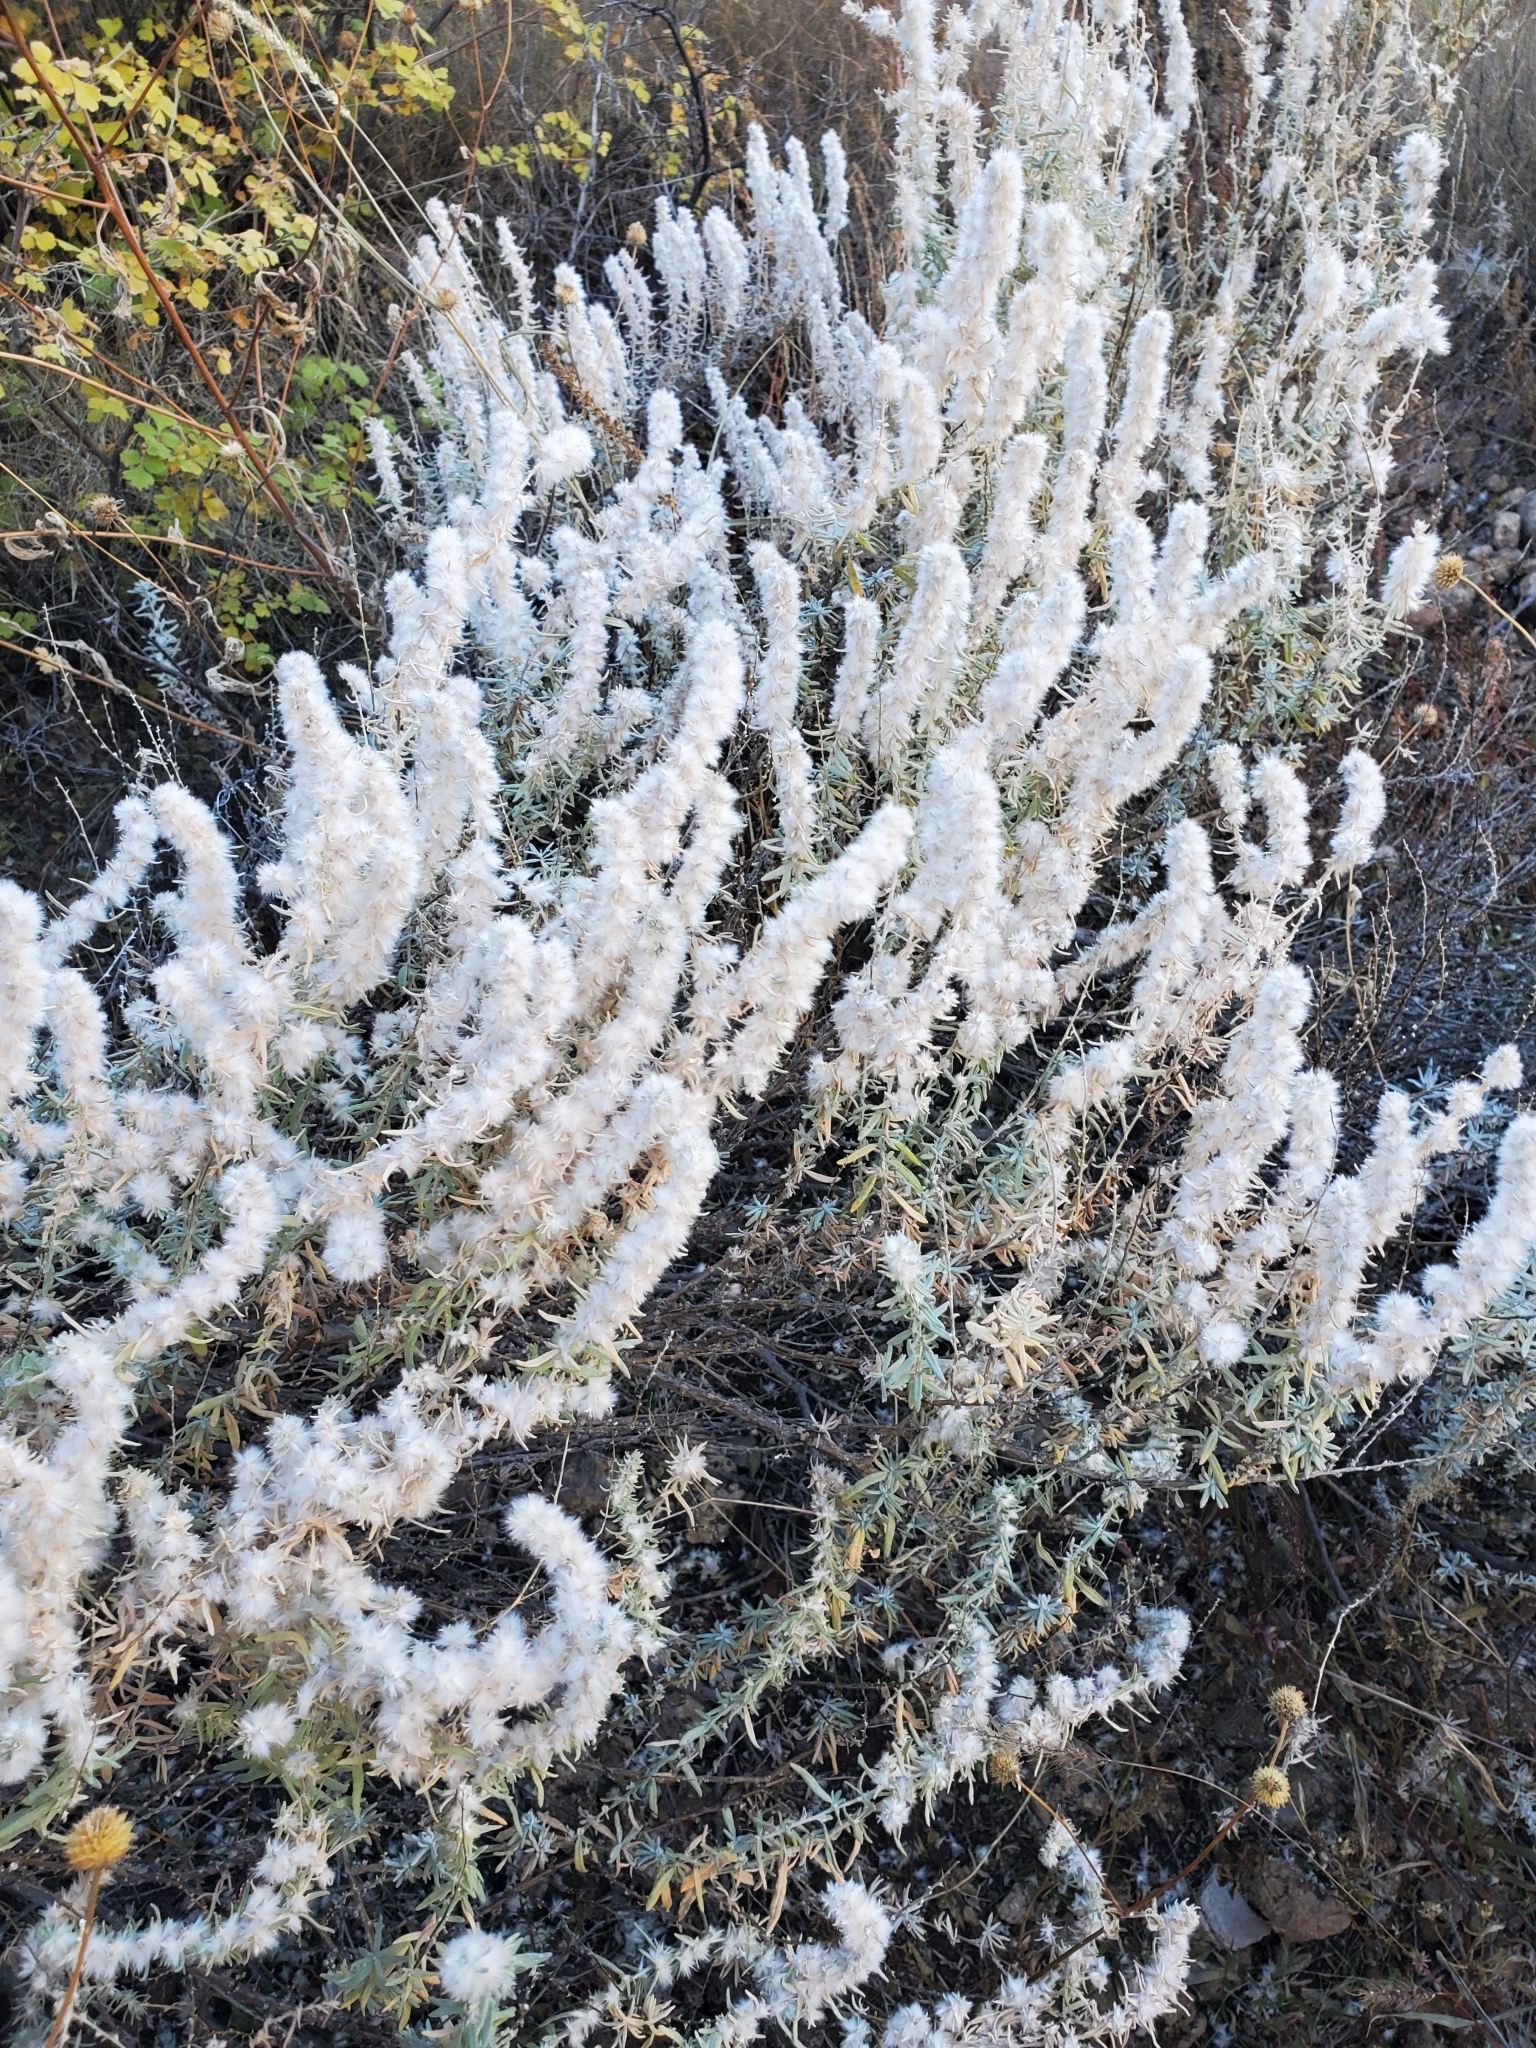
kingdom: Plantae
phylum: Tracheophyta
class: Magnoliopsida
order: Caryophyllales
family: Amaranthaceae
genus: Krascheninnikovia
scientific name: Krascheninnikovia lanata
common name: Winterfat
